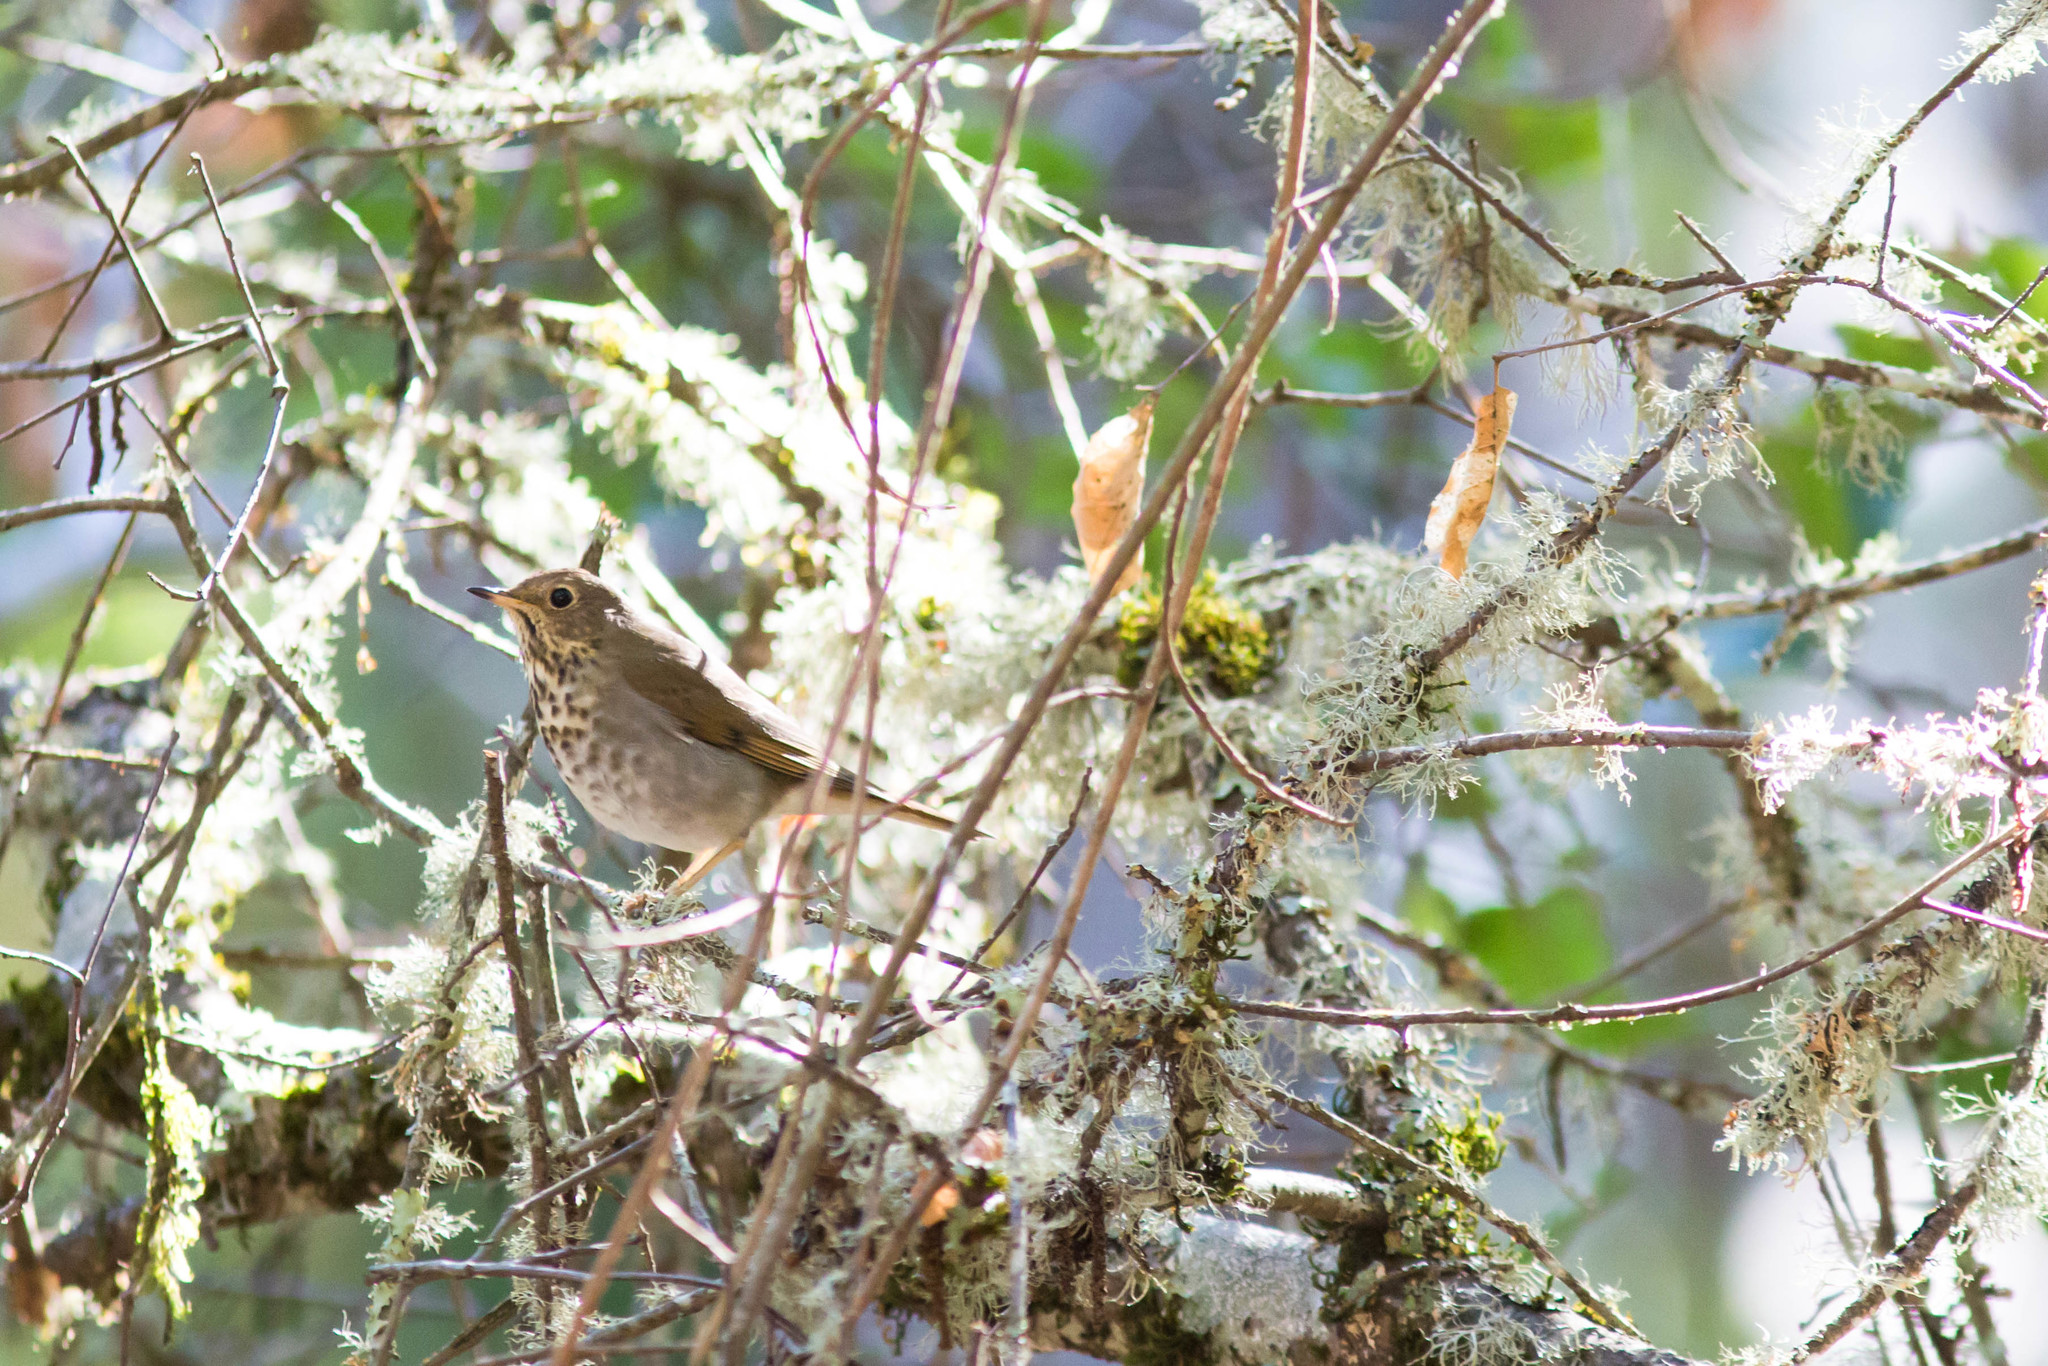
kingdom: Animalia
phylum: Chordata
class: Aves
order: Passeriformes
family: Turdidae
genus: Catharus
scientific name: Catharus guttatus
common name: Hermit thrush
